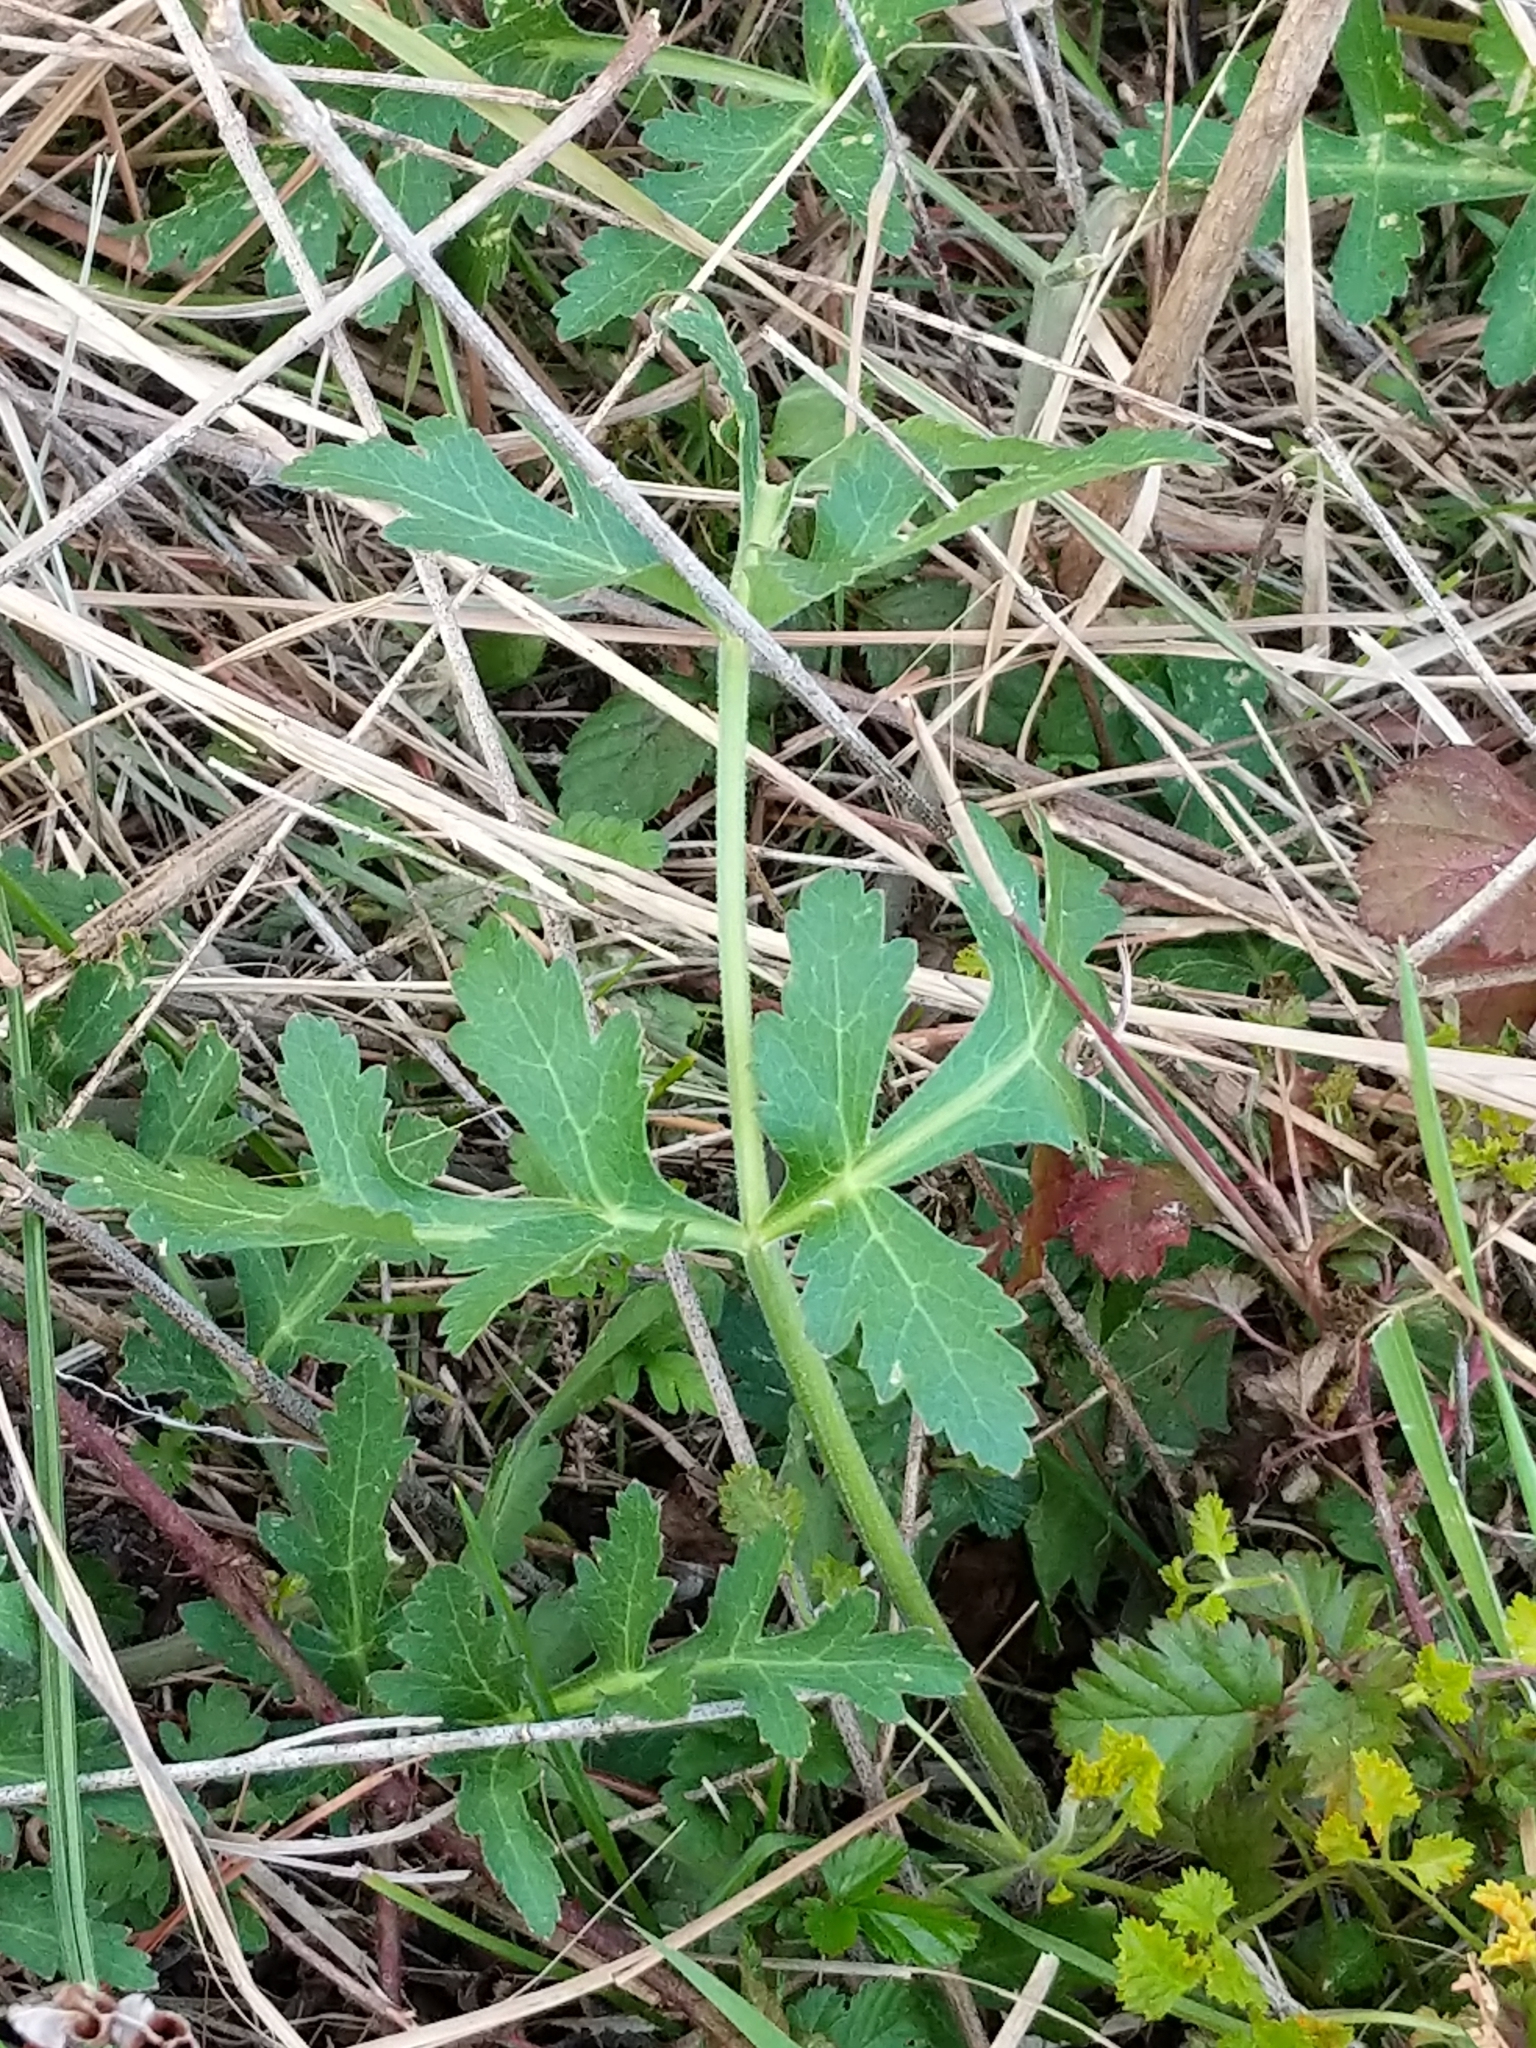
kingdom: Plantae
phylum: Tracheophyta
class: Magnoliopsida
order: Apiales
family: Apiaceae
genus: Polytaenia
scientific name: Polytaenia texana
